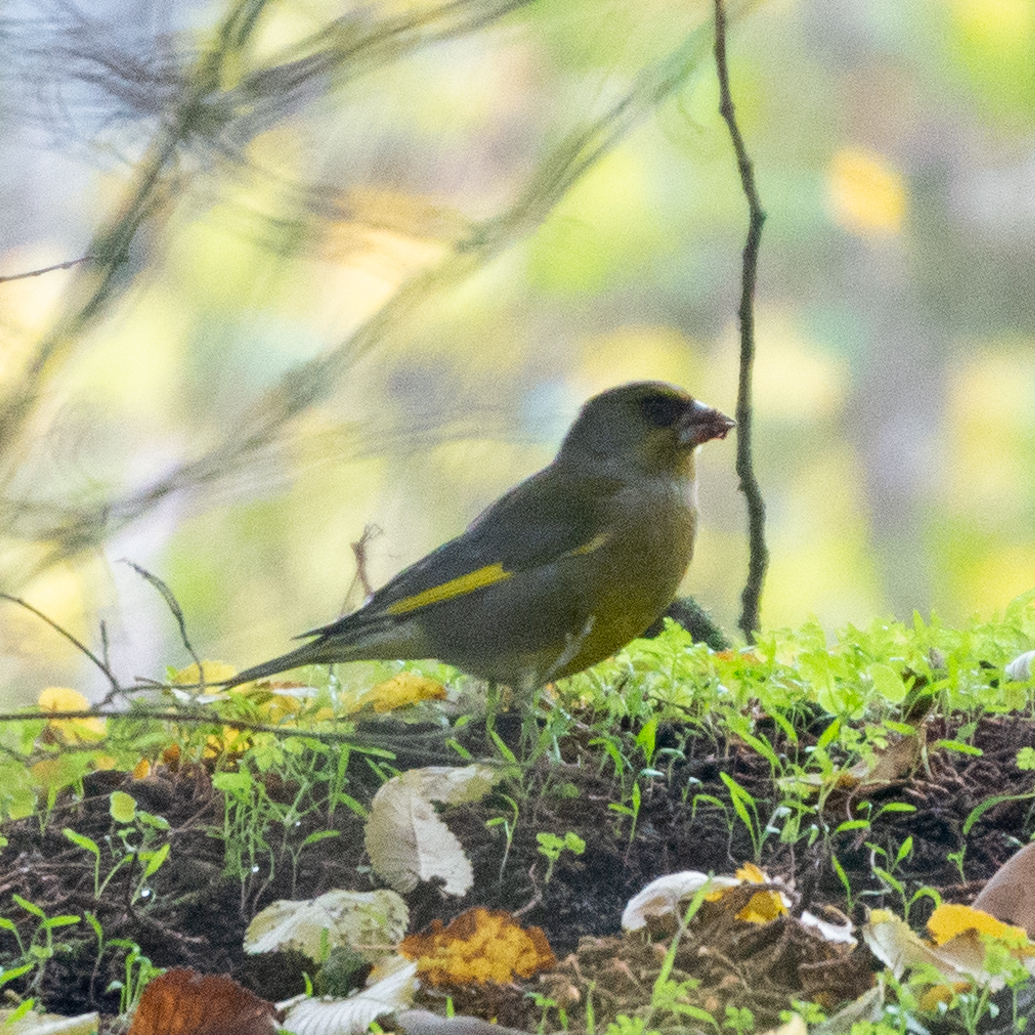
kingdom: Plantae
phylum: Tracheophyta
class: Liliopsida
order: Poales
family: Poaceae
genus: Chloris
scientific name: Chloris chloris
